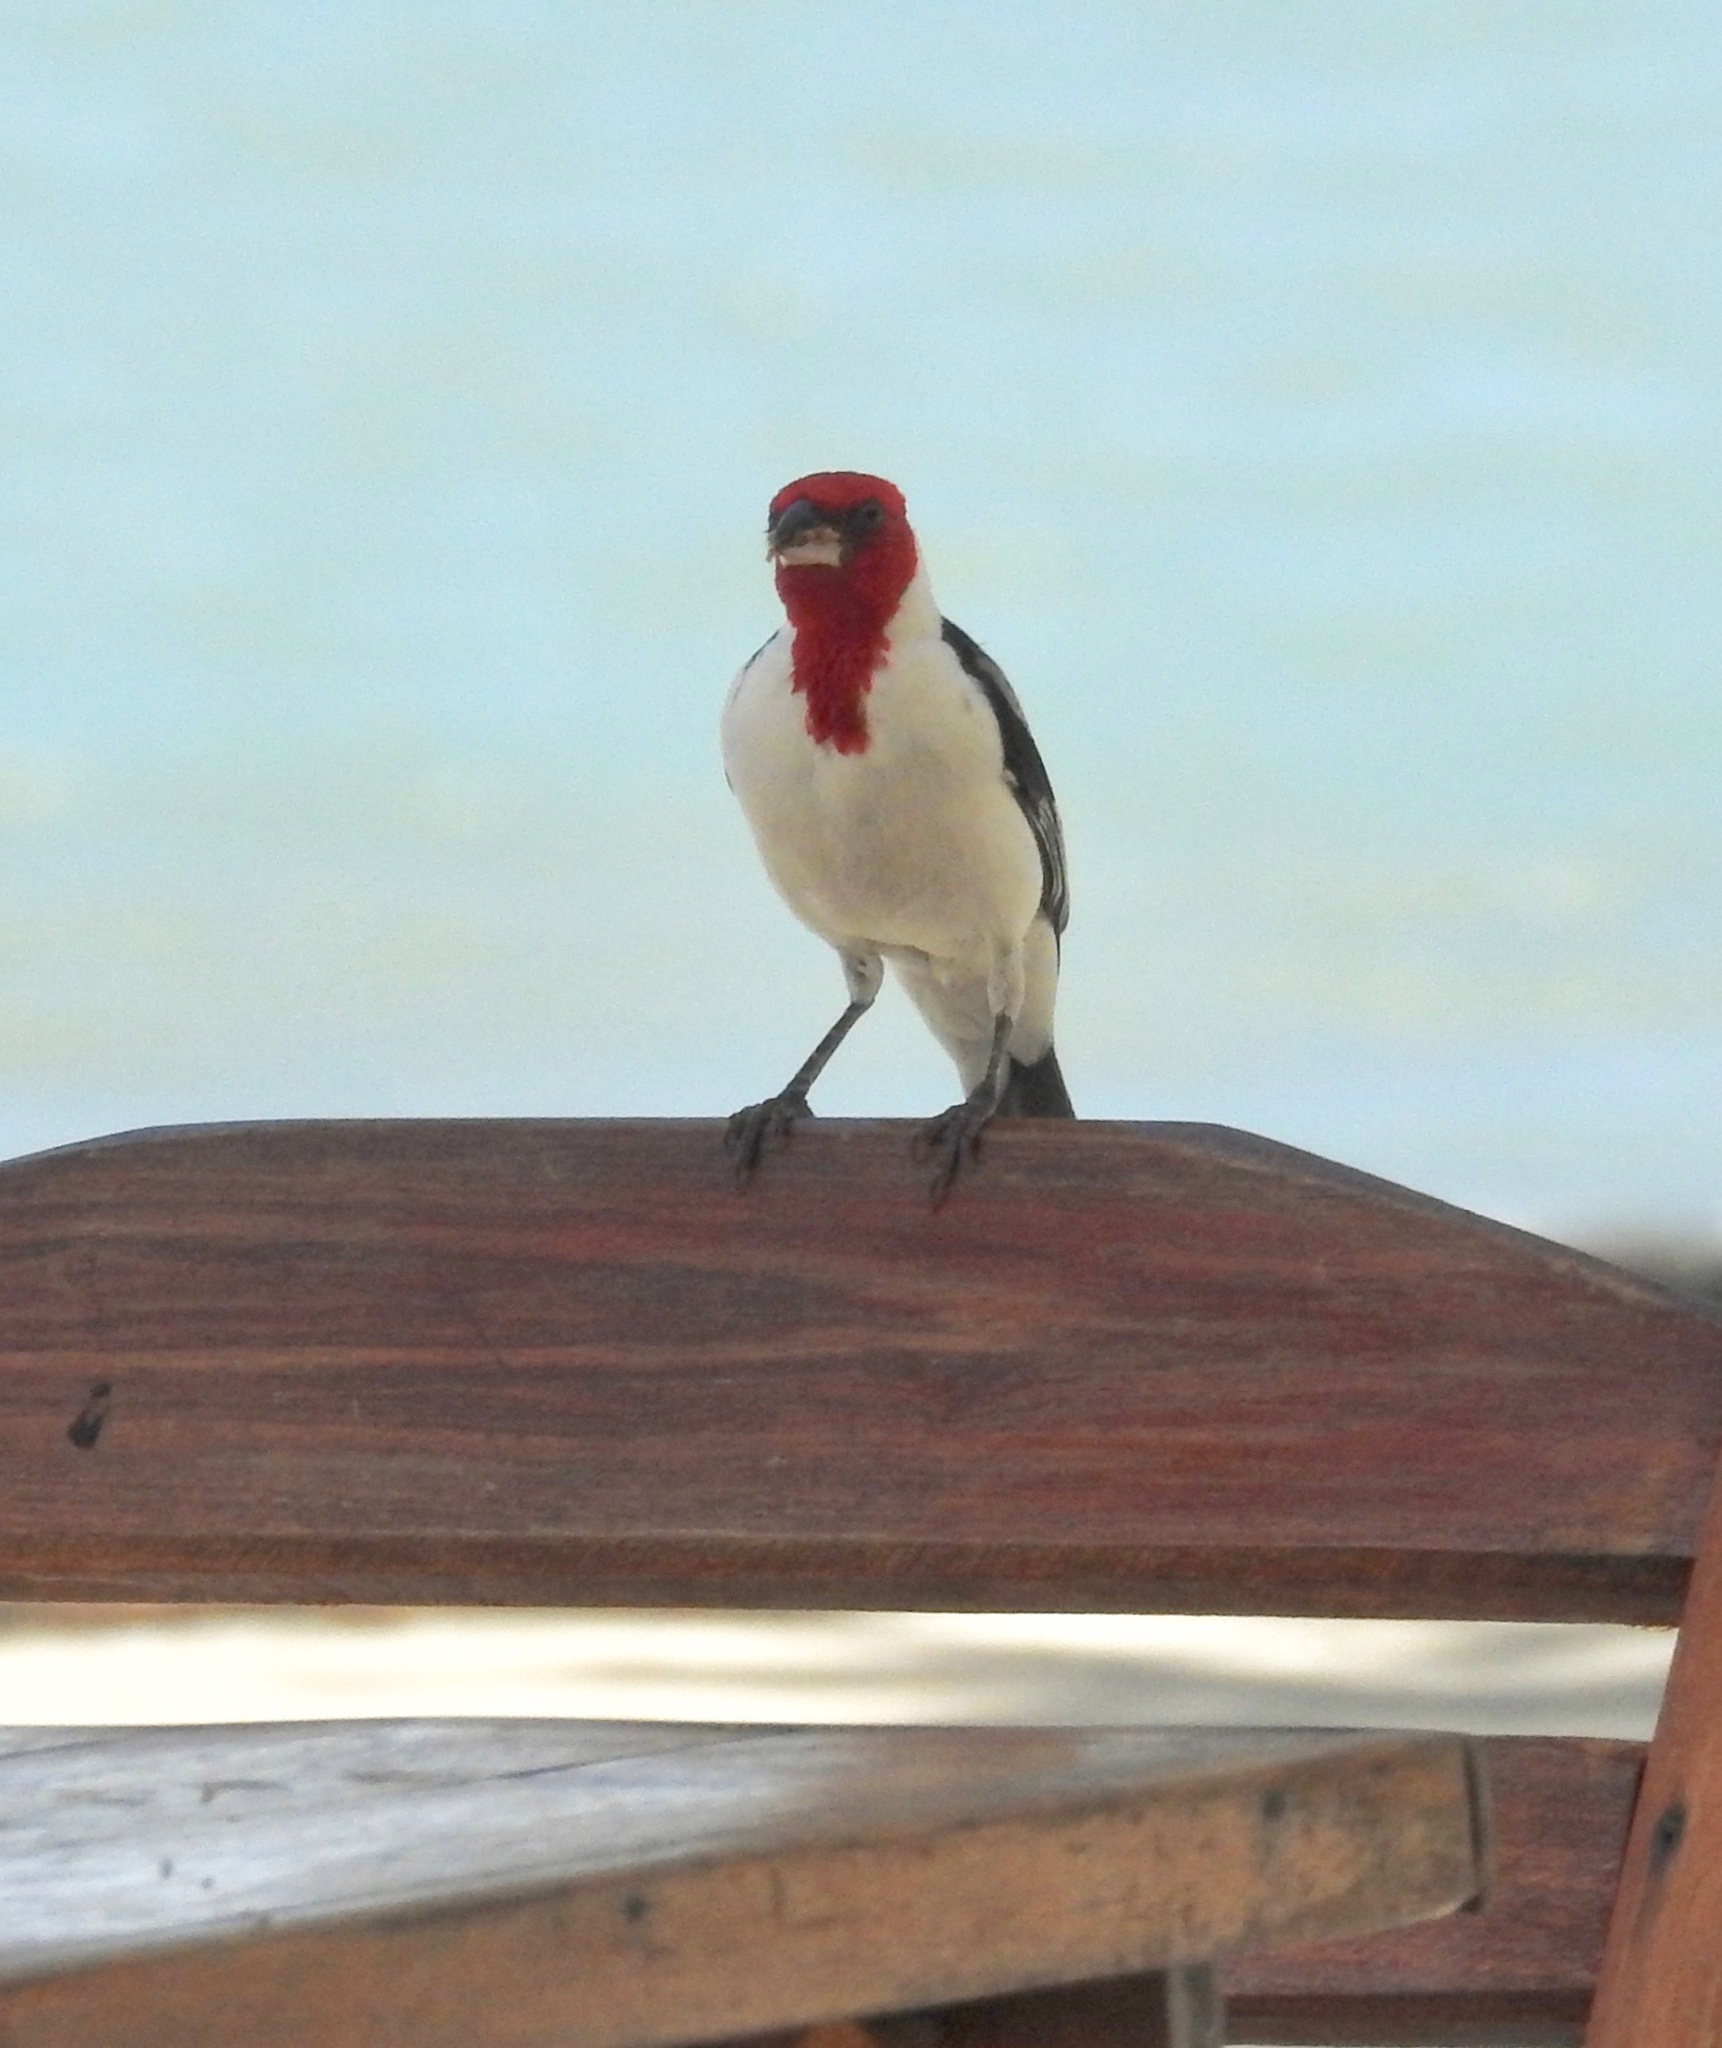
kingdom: Animalia
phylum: Chordata
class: Aves
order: Passeriformes
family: Thraupidae
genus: Paroaria
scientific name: Paroaria dominicana
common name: Red-cowled cardinal
